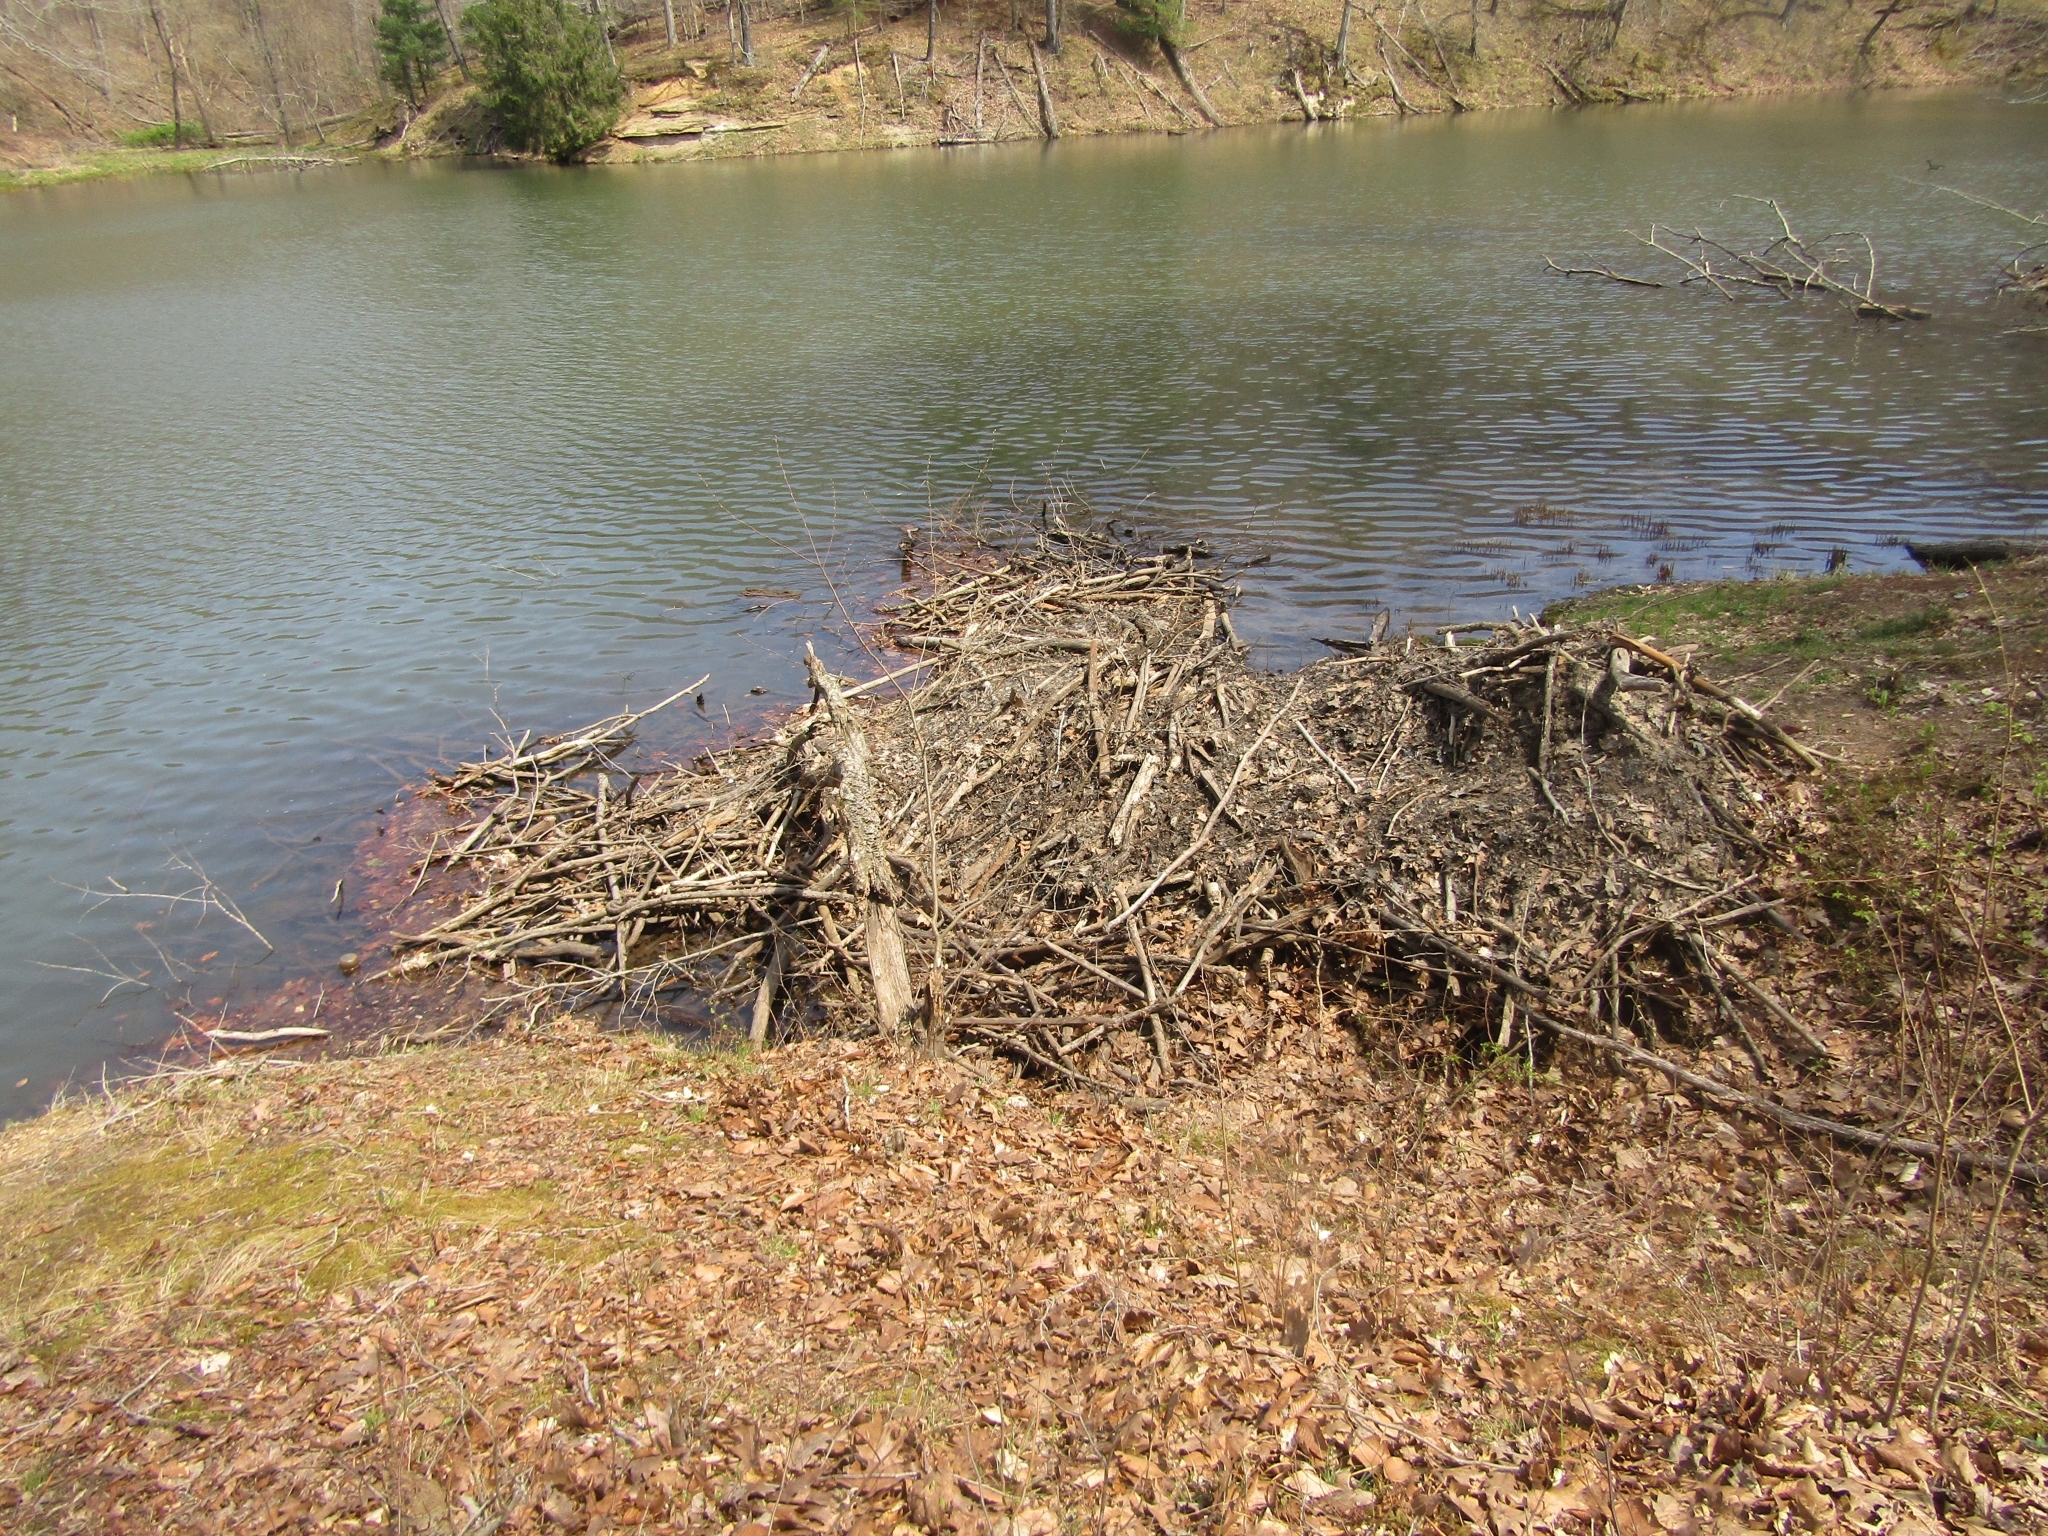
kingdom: Animalia
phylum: Chordata
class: Mammalia
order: Rodentia
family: Castoridae
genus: Castor
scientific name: Castor canadensis
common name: American beaver
